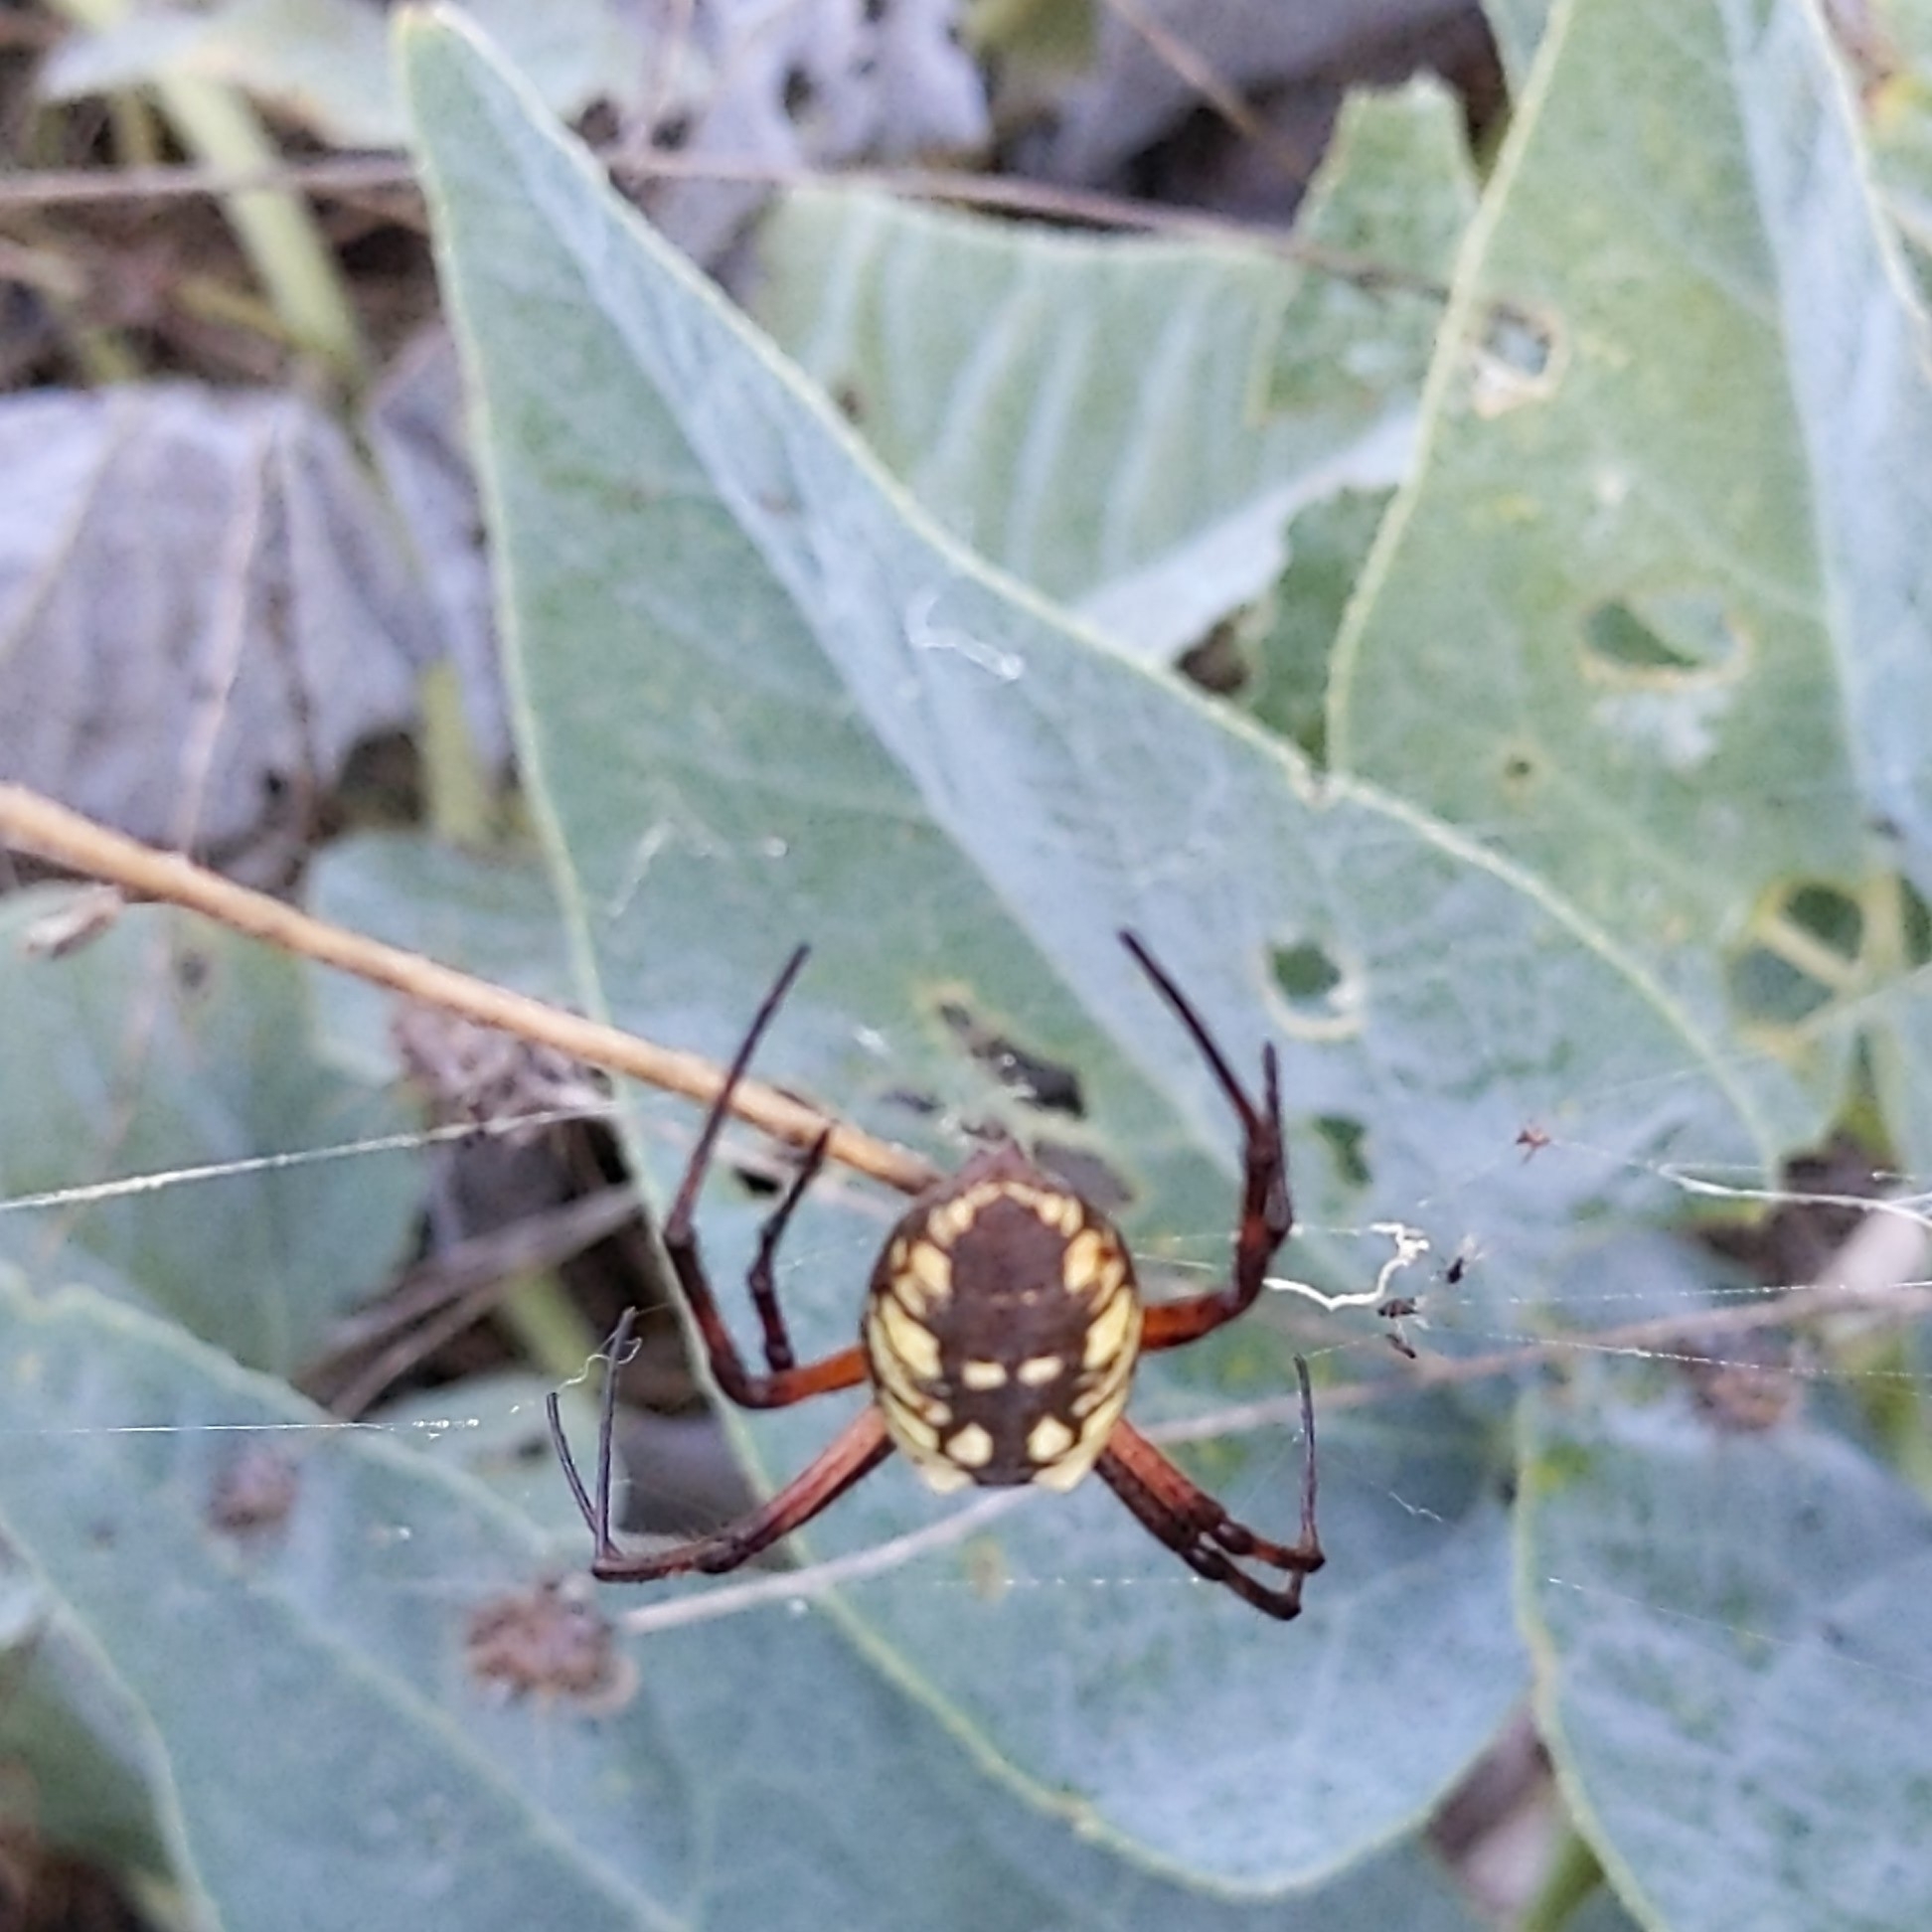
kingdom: Animalia
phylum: Arthropoda
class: Arachnida
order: Araneae
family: Araneidae
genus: Argiope
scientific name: Argiope aurantia
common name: Orb weavers
